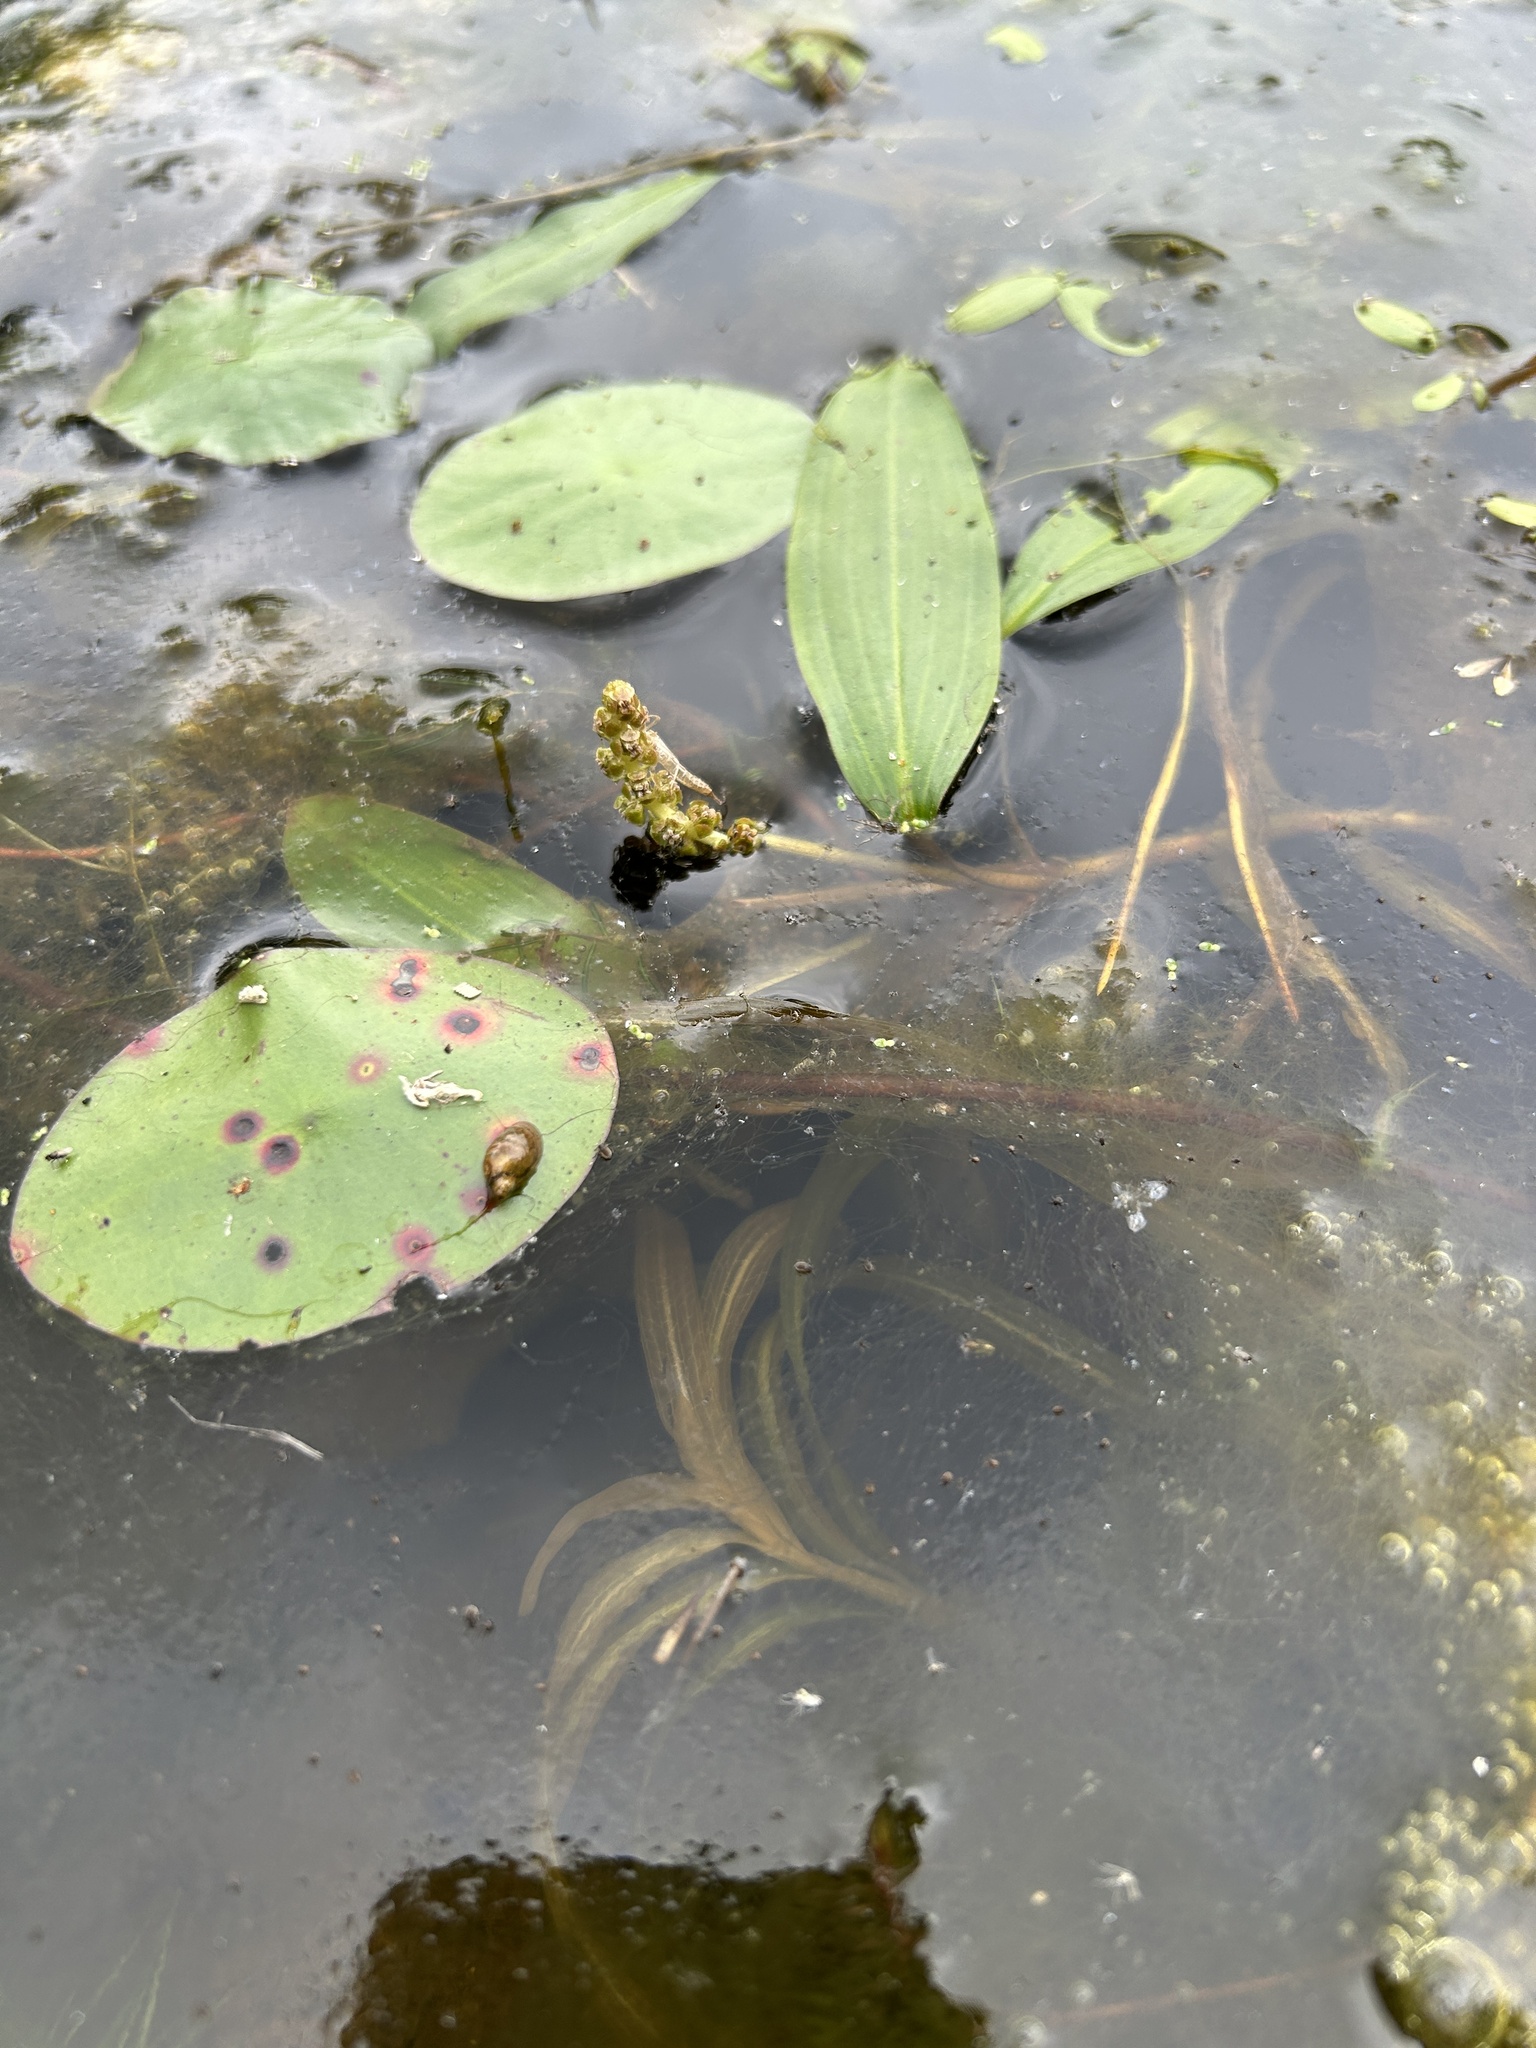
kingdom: Plantae
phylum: Tracheophyta
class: Liliopsida
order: Alismatales
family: Potamogetonaceae
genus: Potamogeton
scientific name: Potamogeton epihydrus
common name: American pondweed
